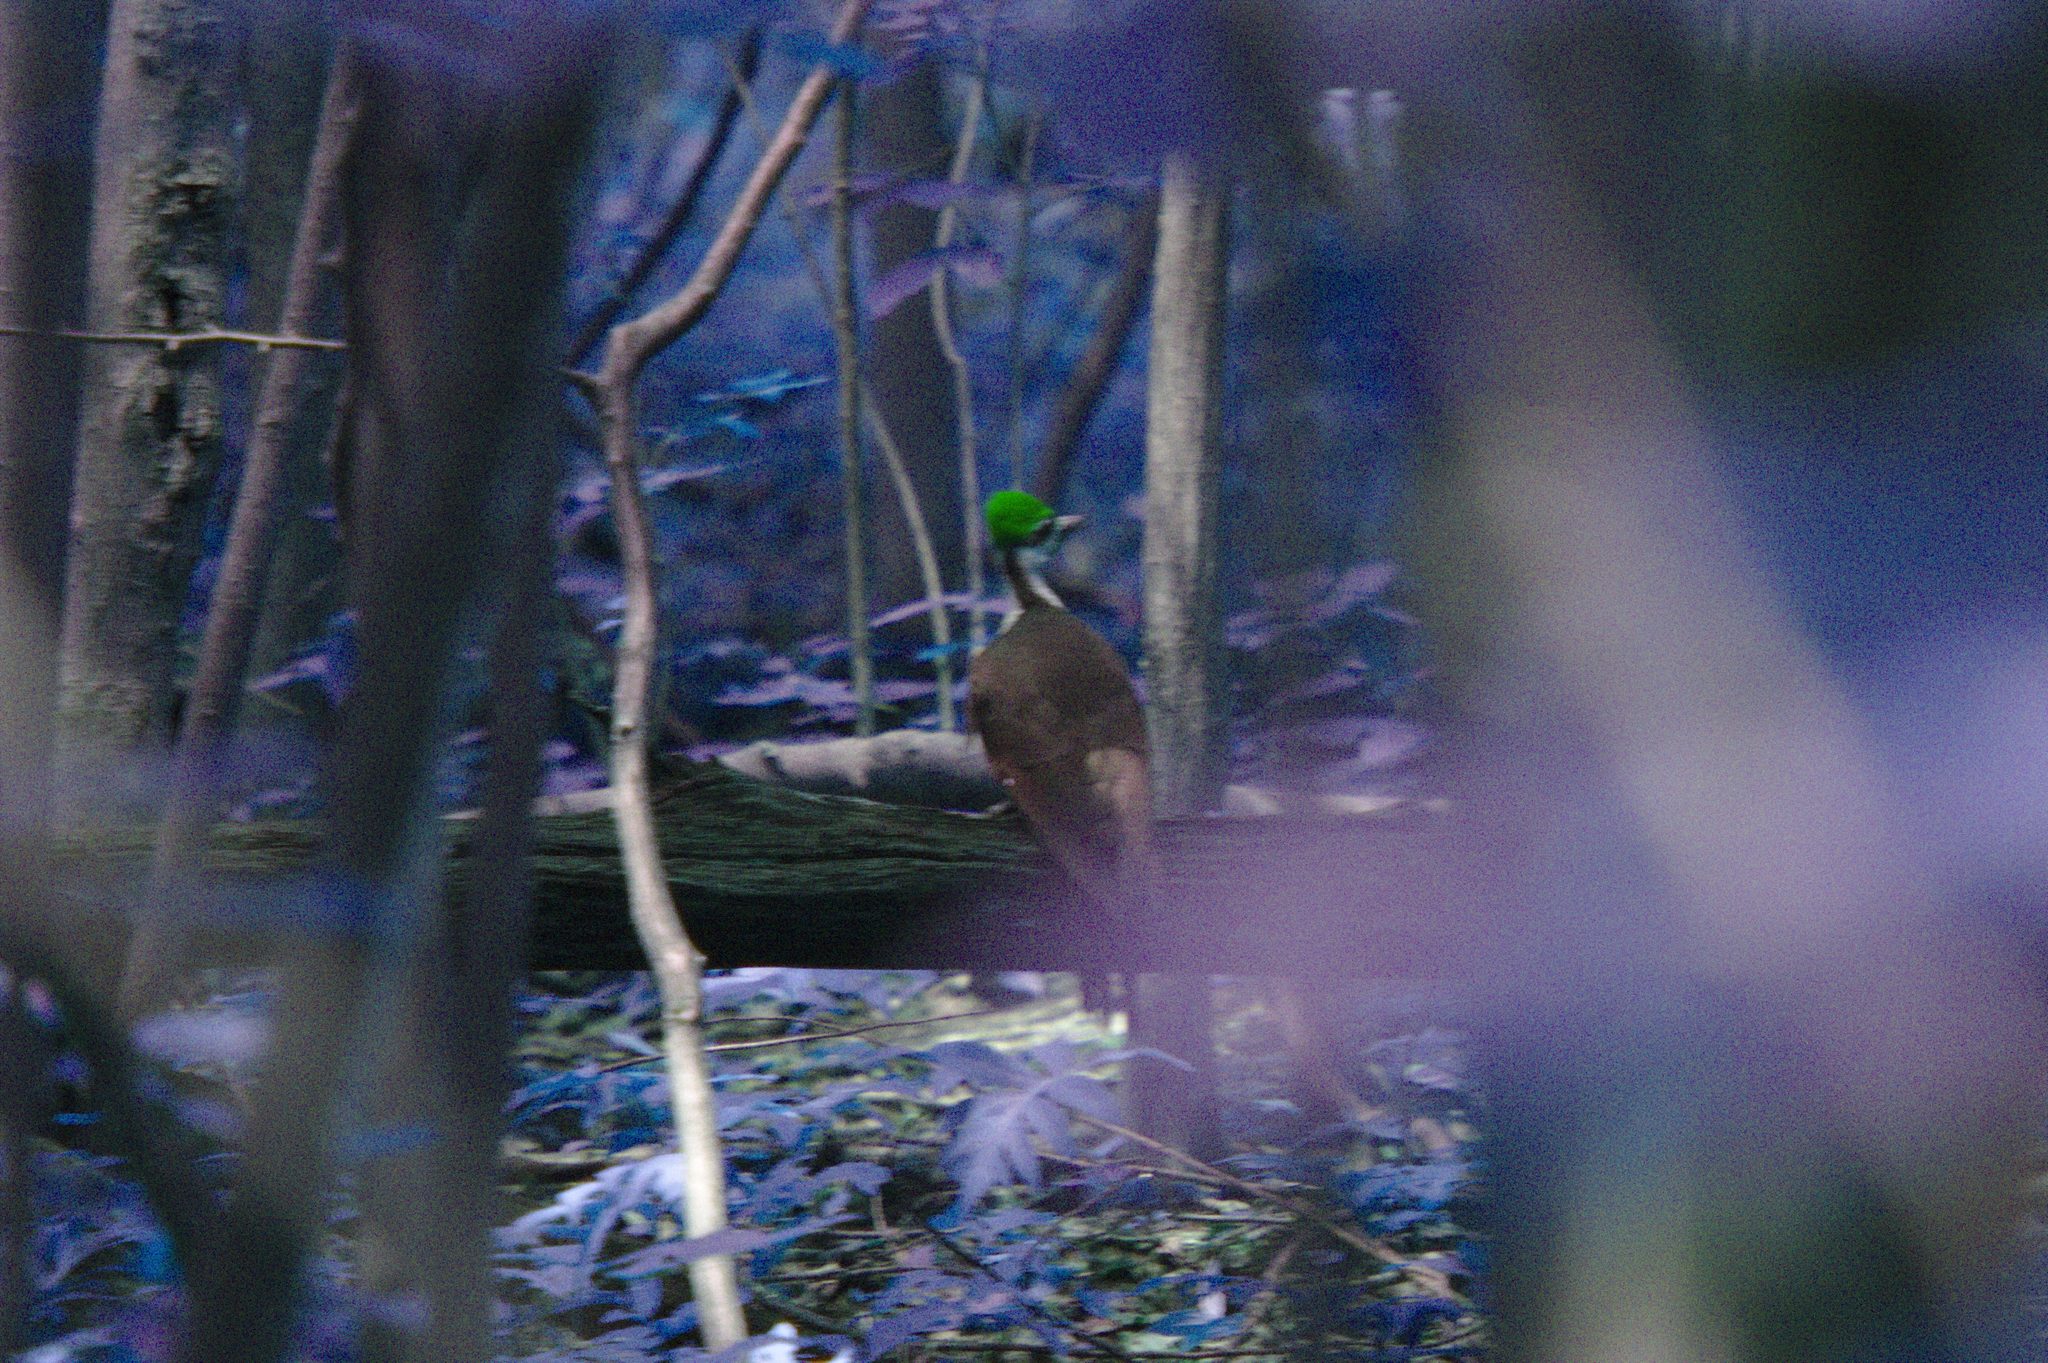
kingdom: Animalia
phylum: Chordata
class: Aves
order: Piciformes
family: Picidae
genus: Dryocopus
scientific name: Dryocopus pileatus
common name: Pileated woodpecker
